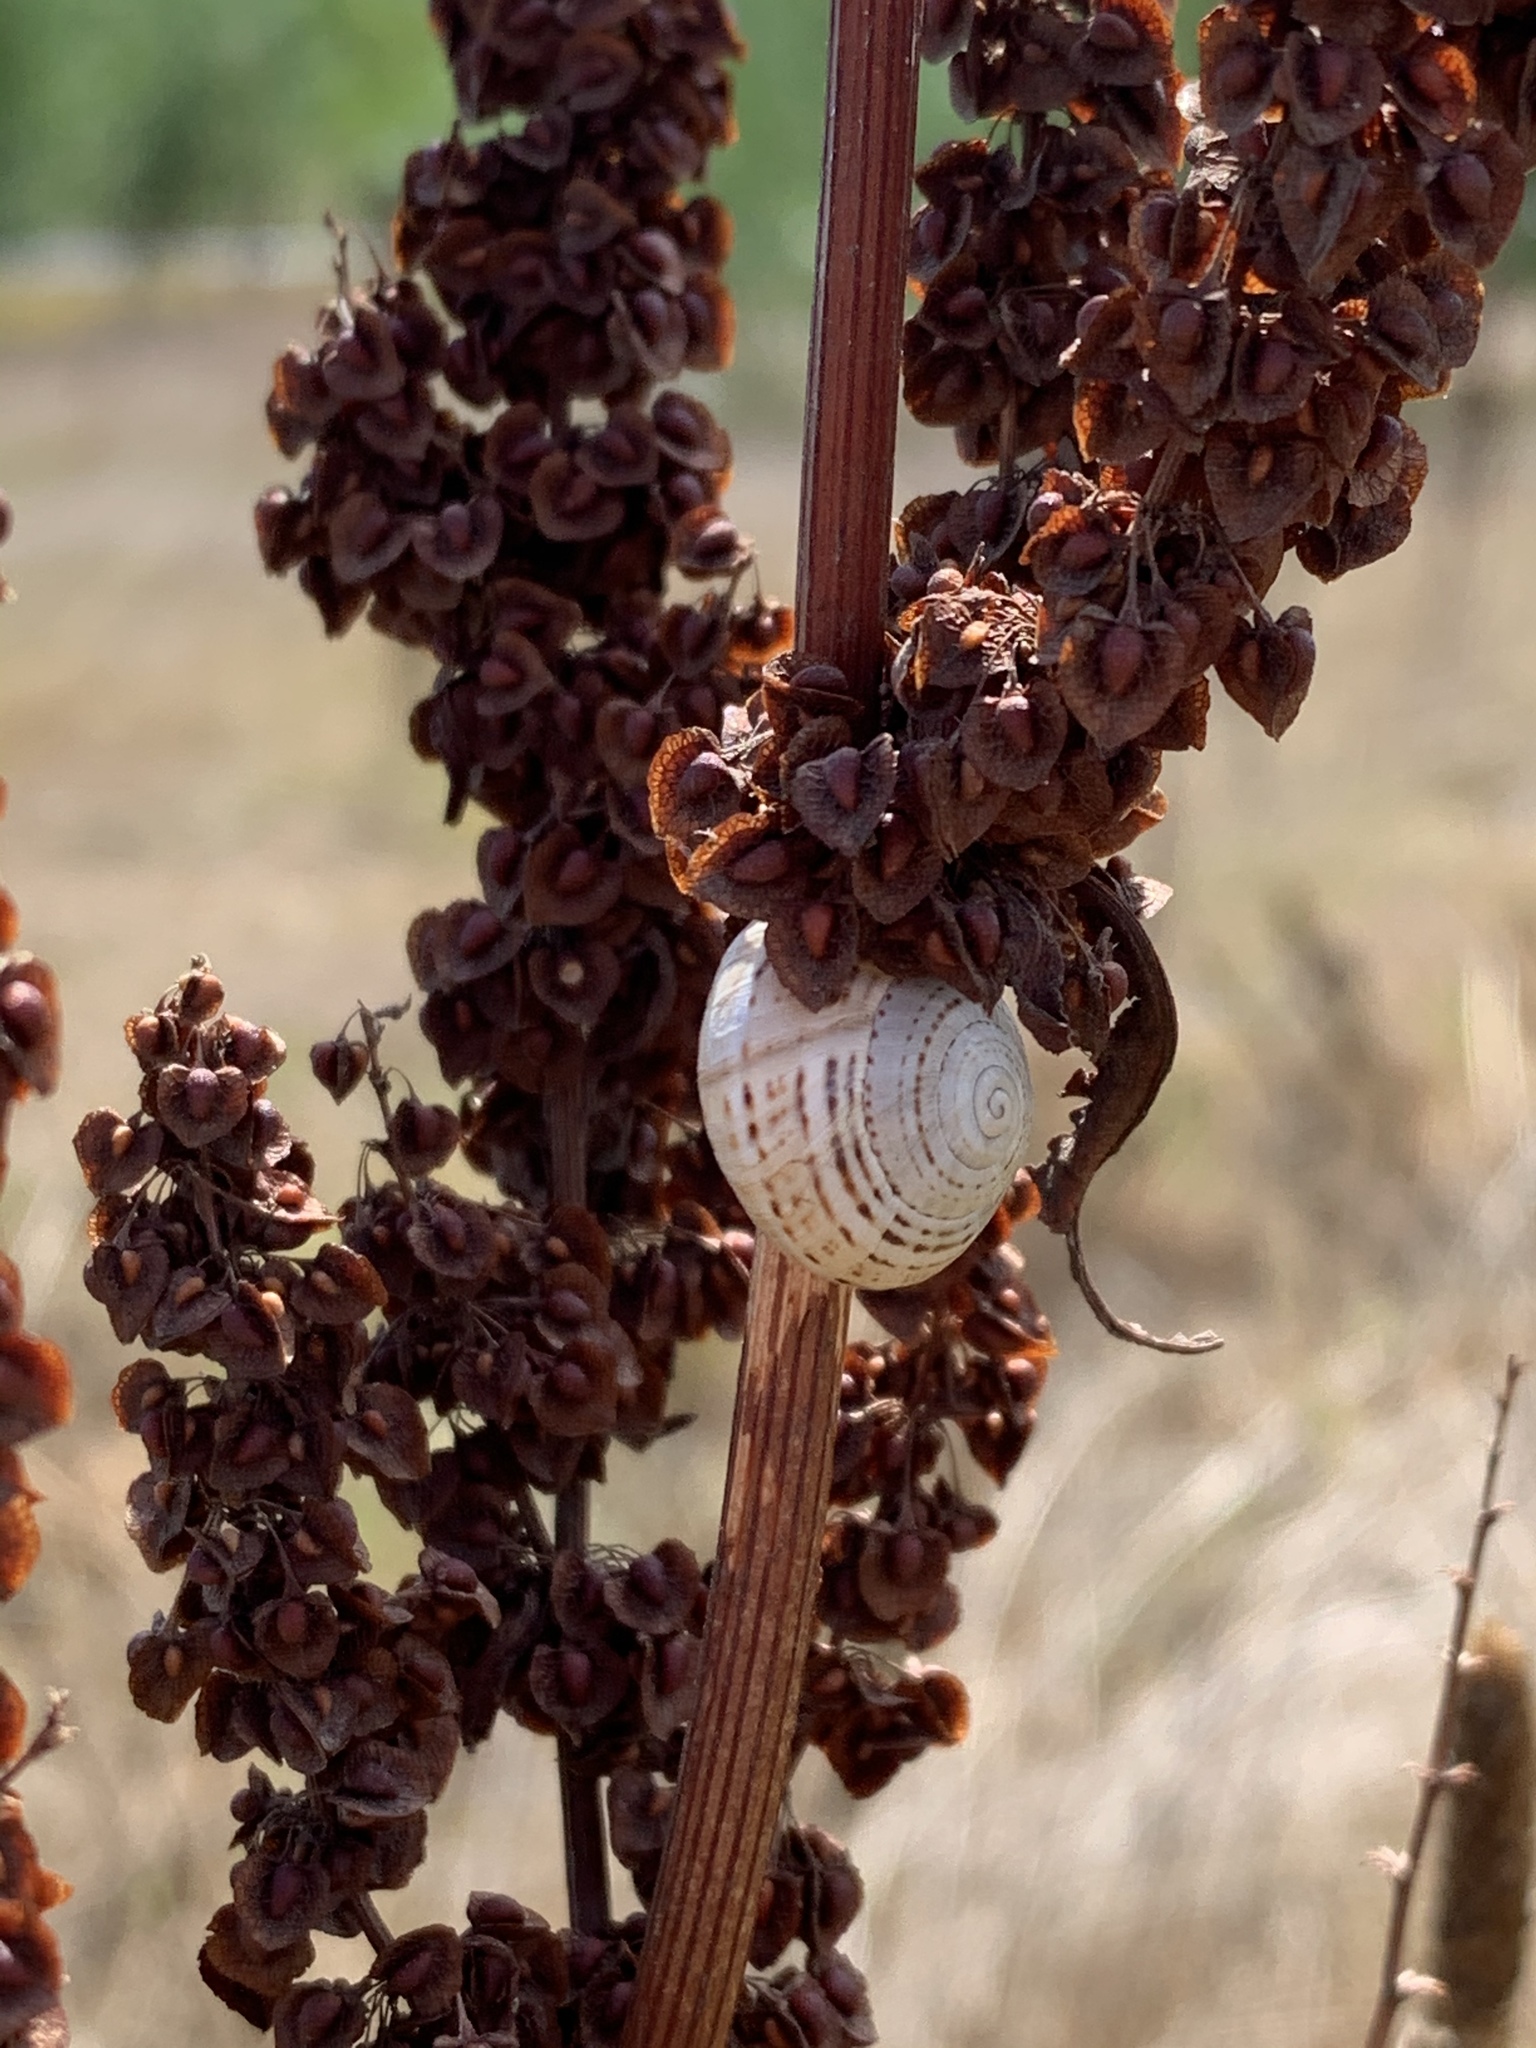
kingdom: Animalia
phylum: Mollusca
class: Gastropoda
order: Stylommatophora
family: Helicidae
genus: Theba
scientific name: Theba pisana
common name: White snail
